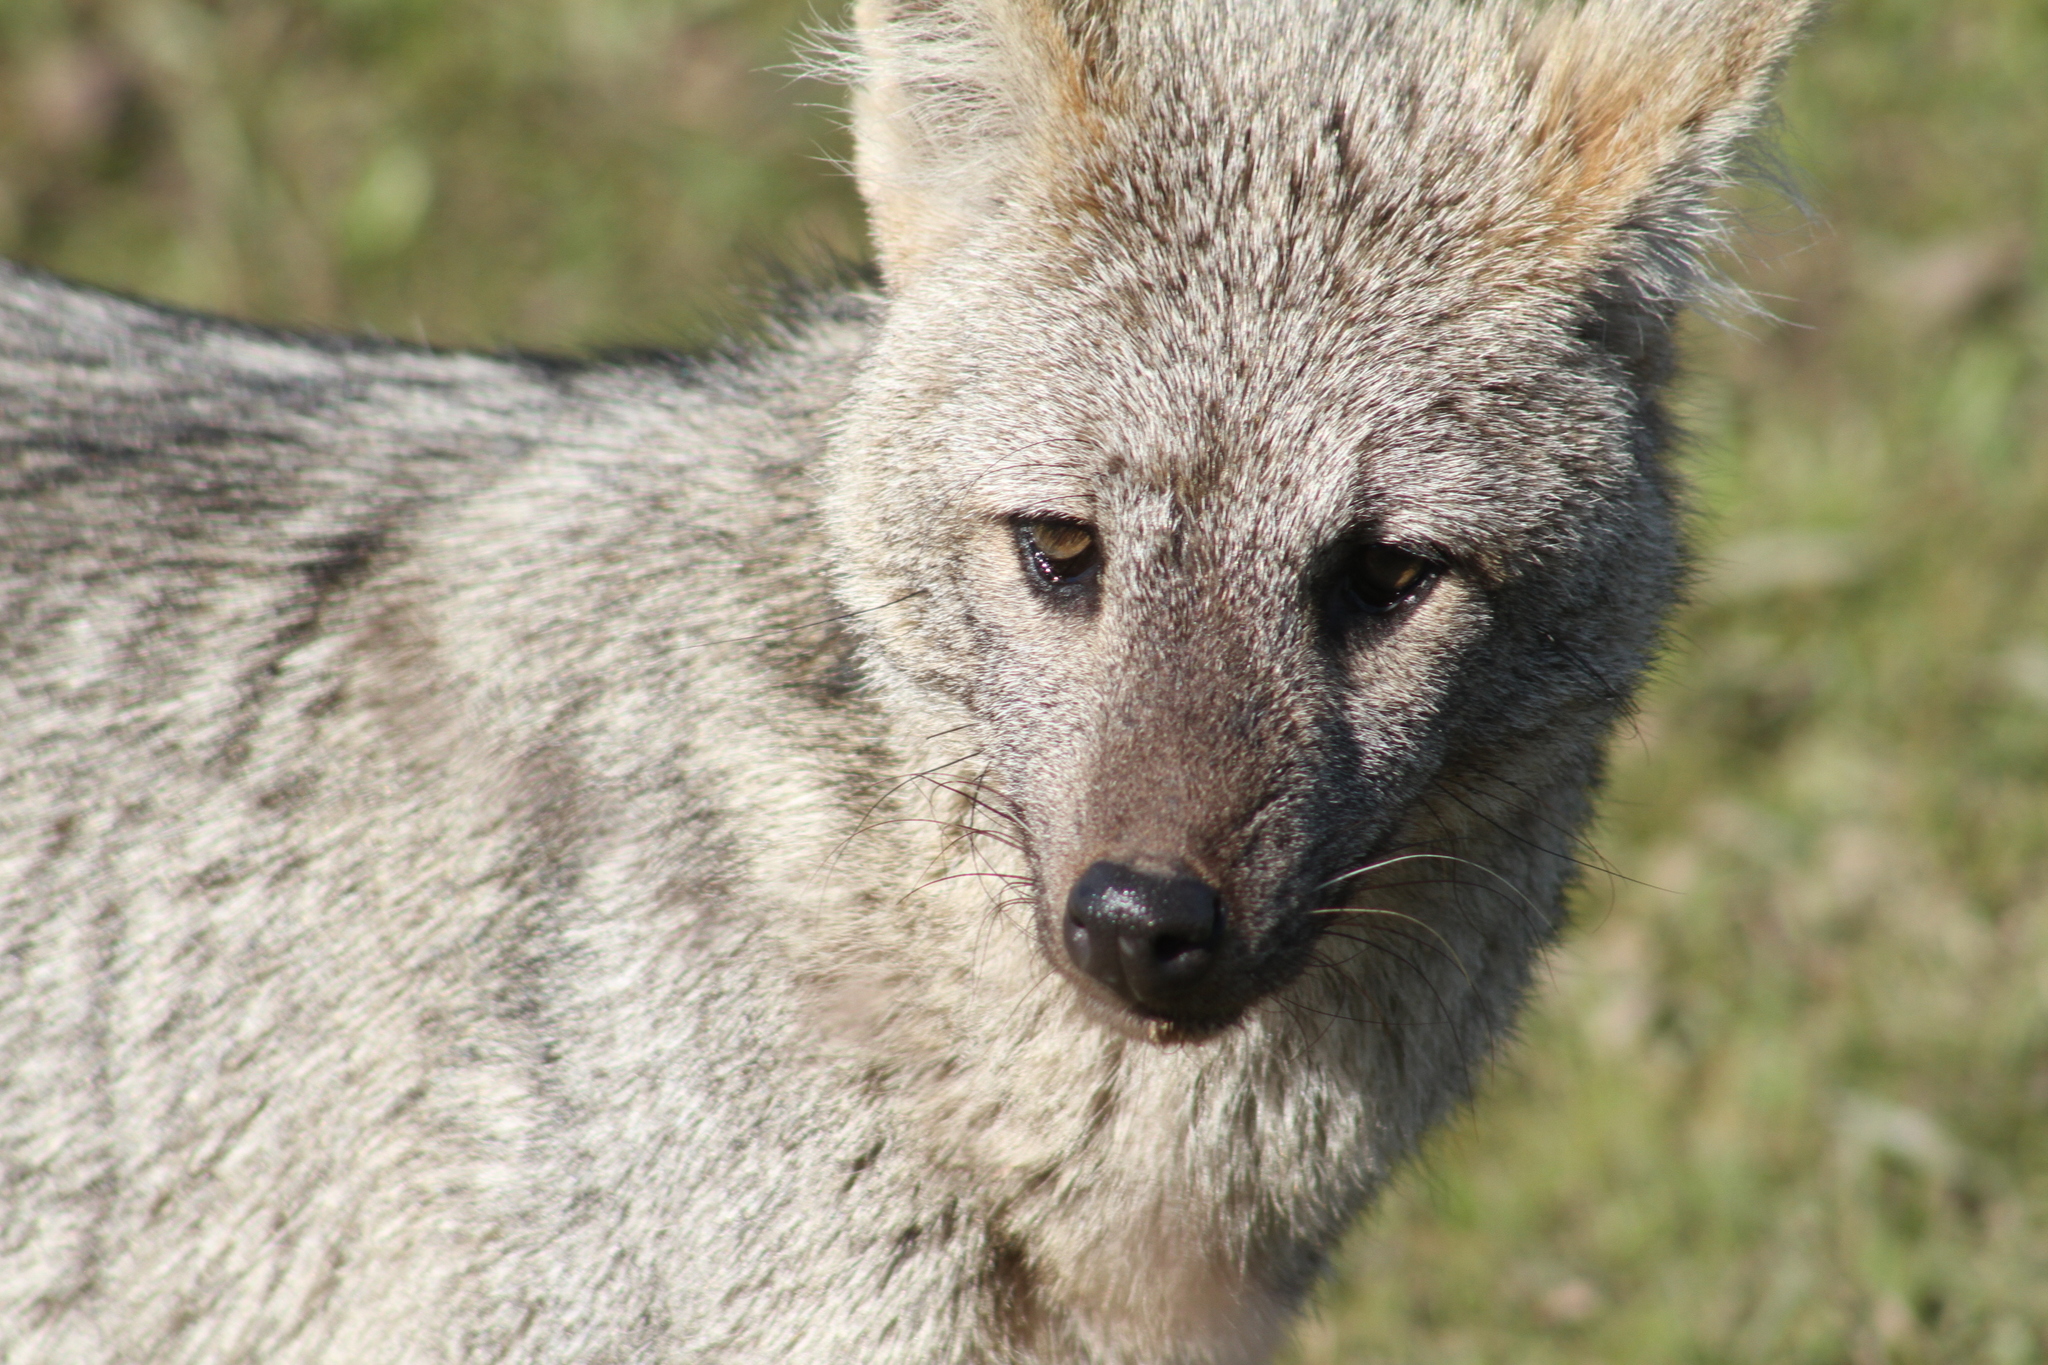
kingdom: Animalia
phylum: Chordata
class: Mammalia
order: Carnivora
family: Canidae
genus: Cerdocyon
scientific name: Cerdocyon thous
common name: Crab-eating fox
